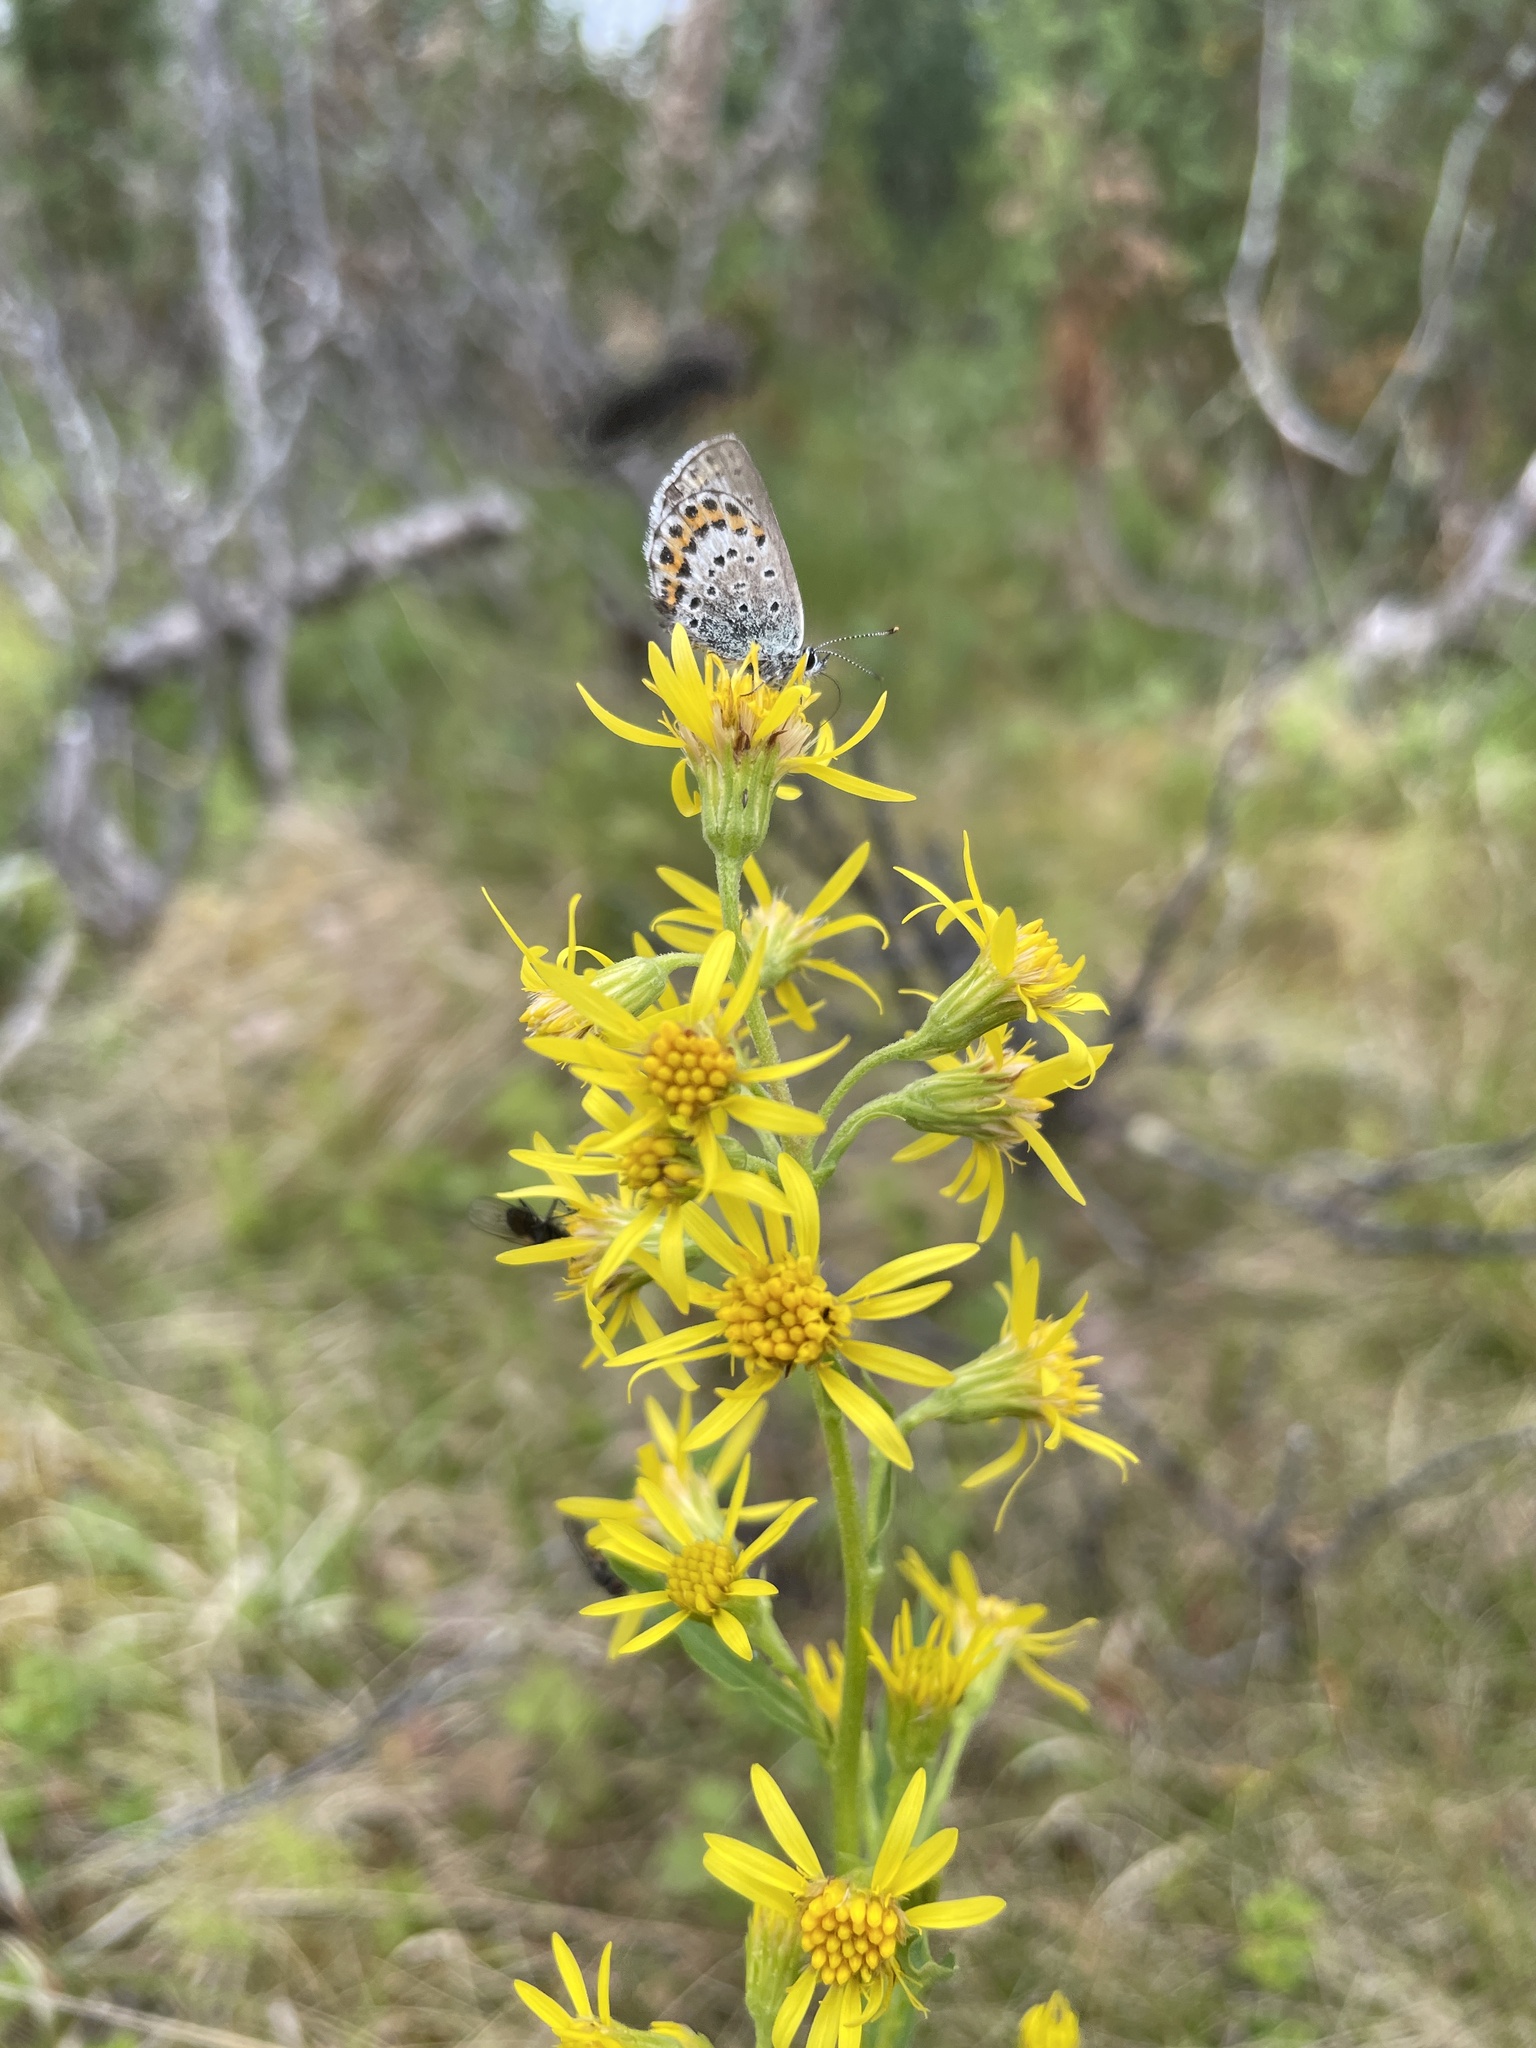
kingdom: Plantae
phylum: Tracheophyta
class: Magnoliopsida
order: Asterales
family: Asteraceae
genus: Solidago
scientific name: Solidago virgaurea
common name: Goldenrod
